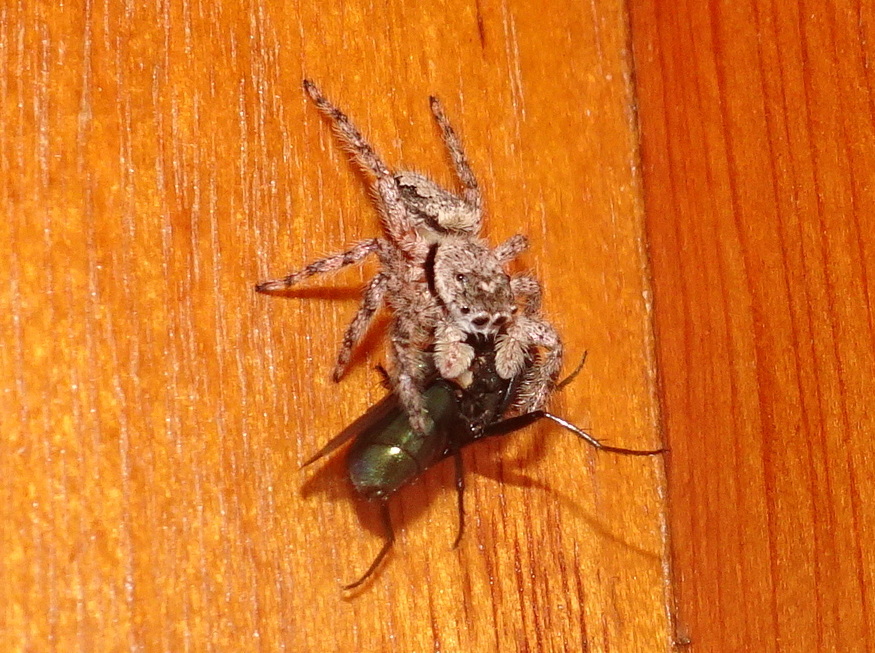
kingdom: Animalia
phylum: Arthropoda
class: Arachnida
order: Araneae
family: Salticidae
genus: Platycryptus
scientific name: Platycryptus undatus
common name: Tan jumping spider
